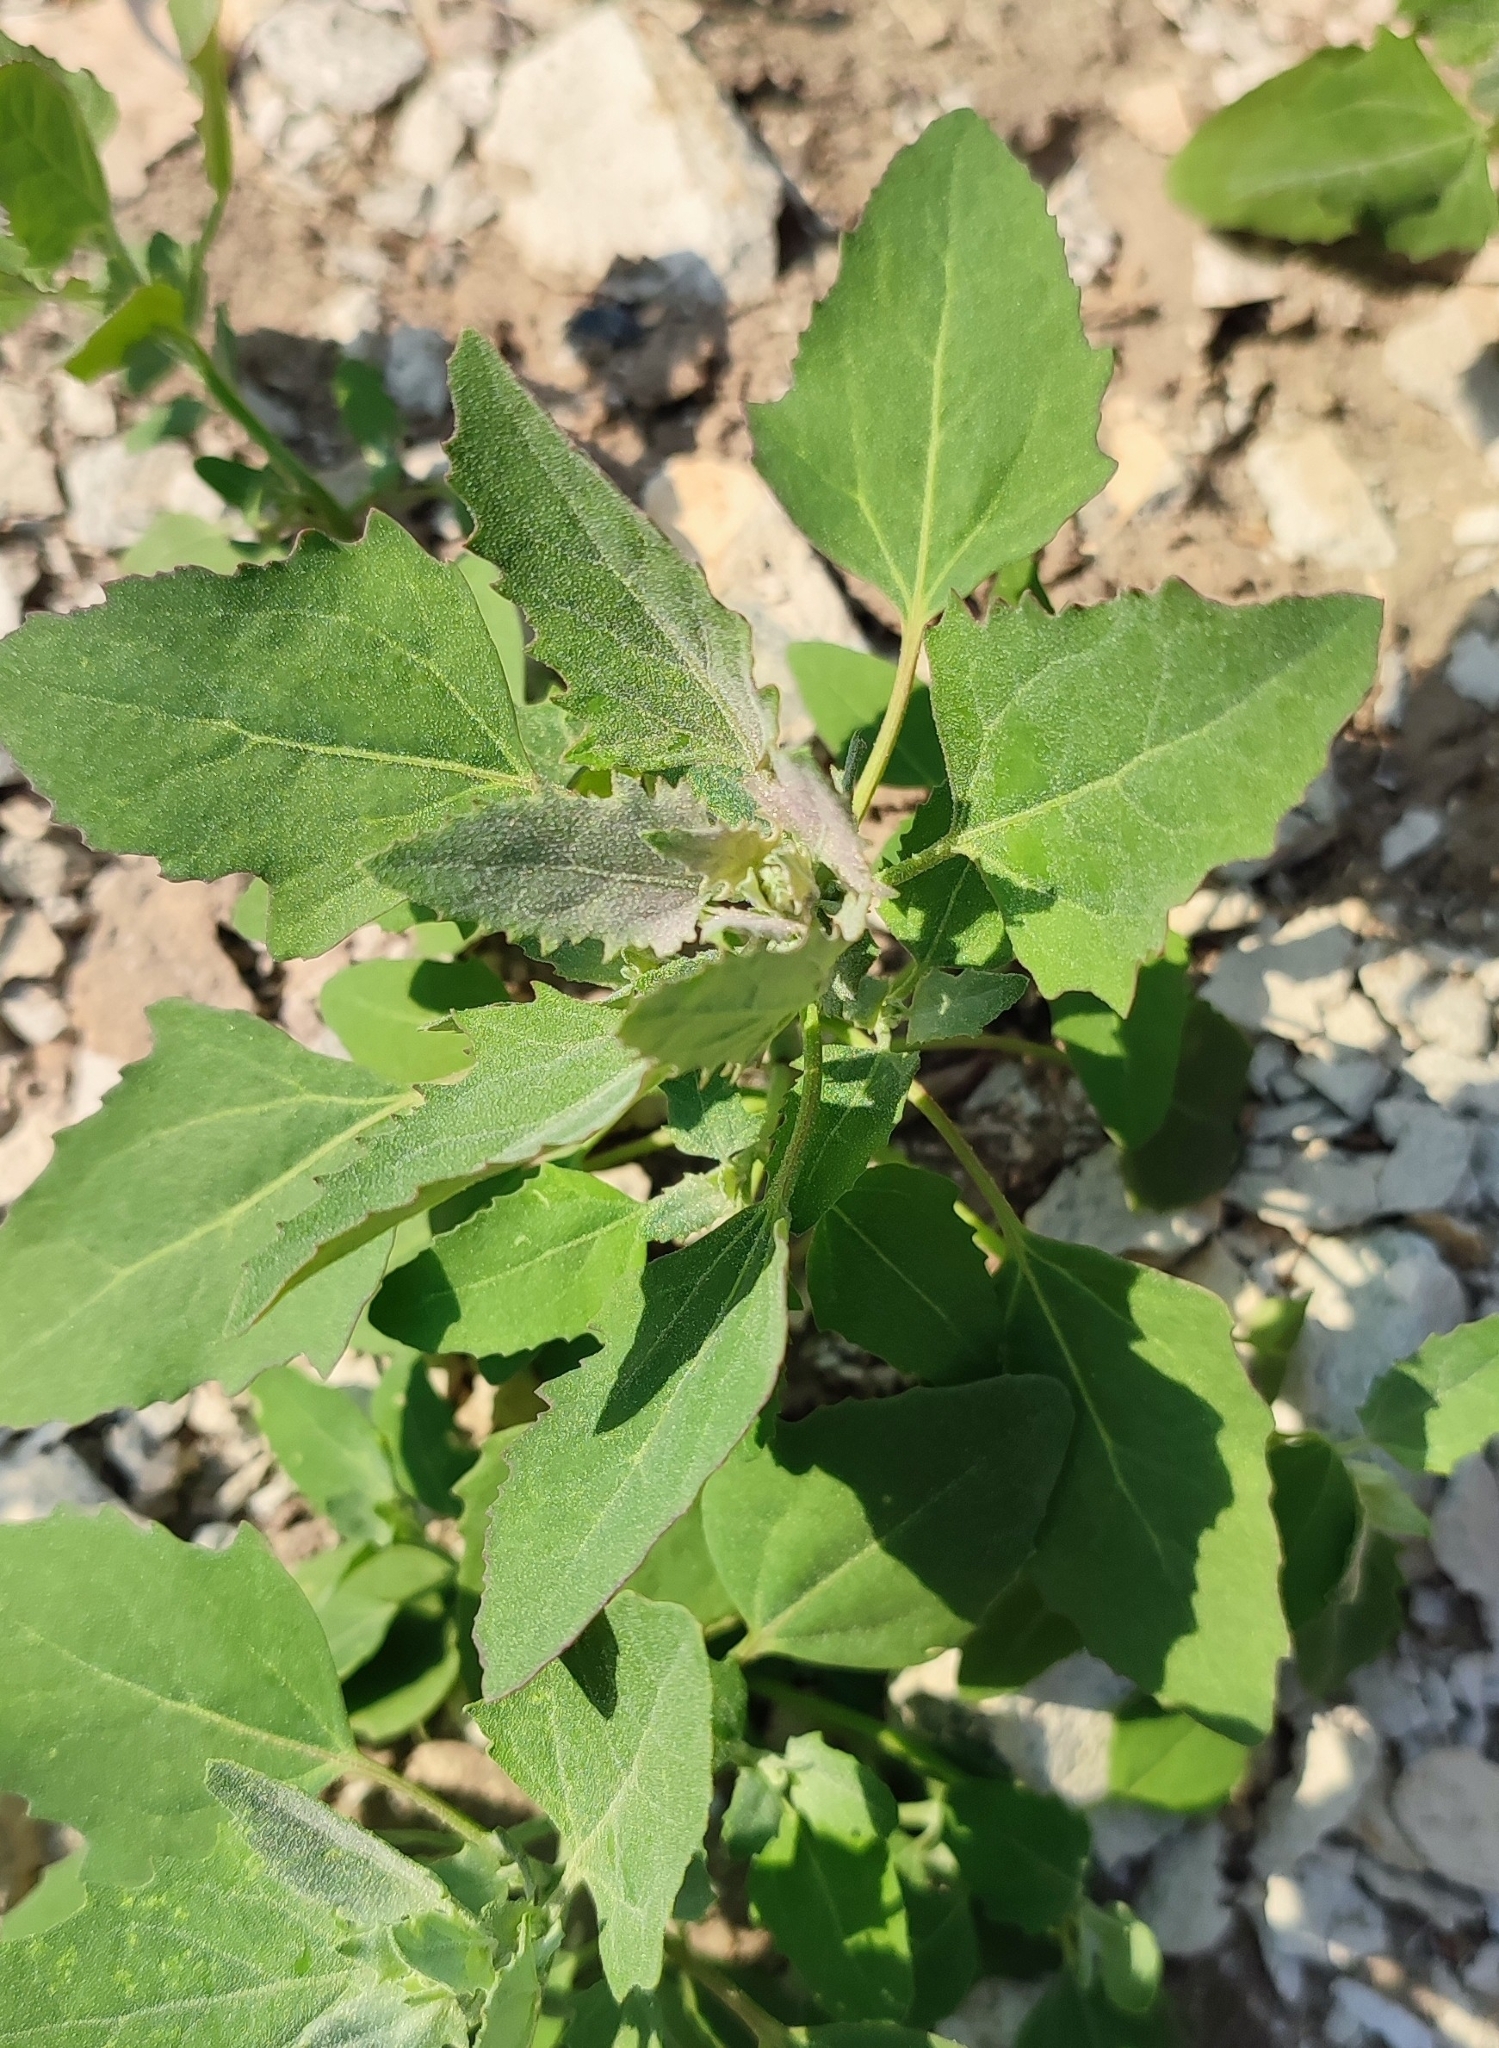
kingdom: Plantae
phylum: Tracheophyta
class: Magnoliopsida
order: Caryophyllales
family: Amaranthaceae
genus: Chenopodium
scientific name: Chenopodium album
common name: Fat-hen
